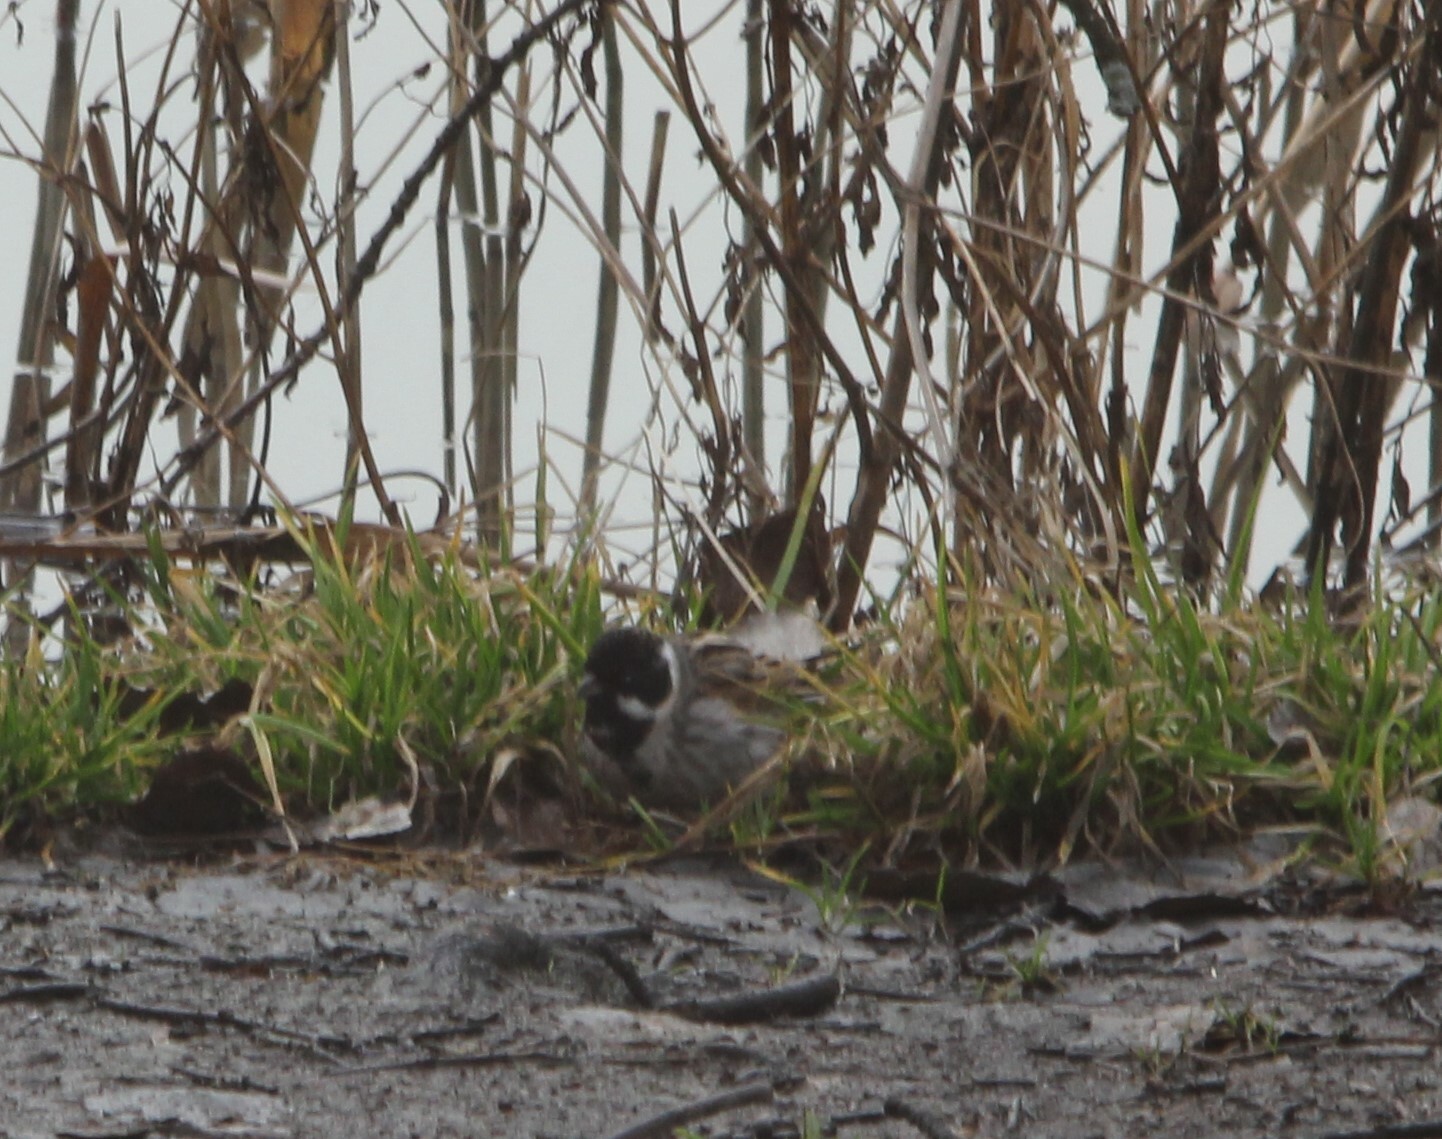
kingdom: Animalia
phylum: Chordata
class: Aves
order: Passeriformes
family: Emberizidae
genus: Emberiza
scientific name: Emberiza schoeniclus
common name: Reed bunting
